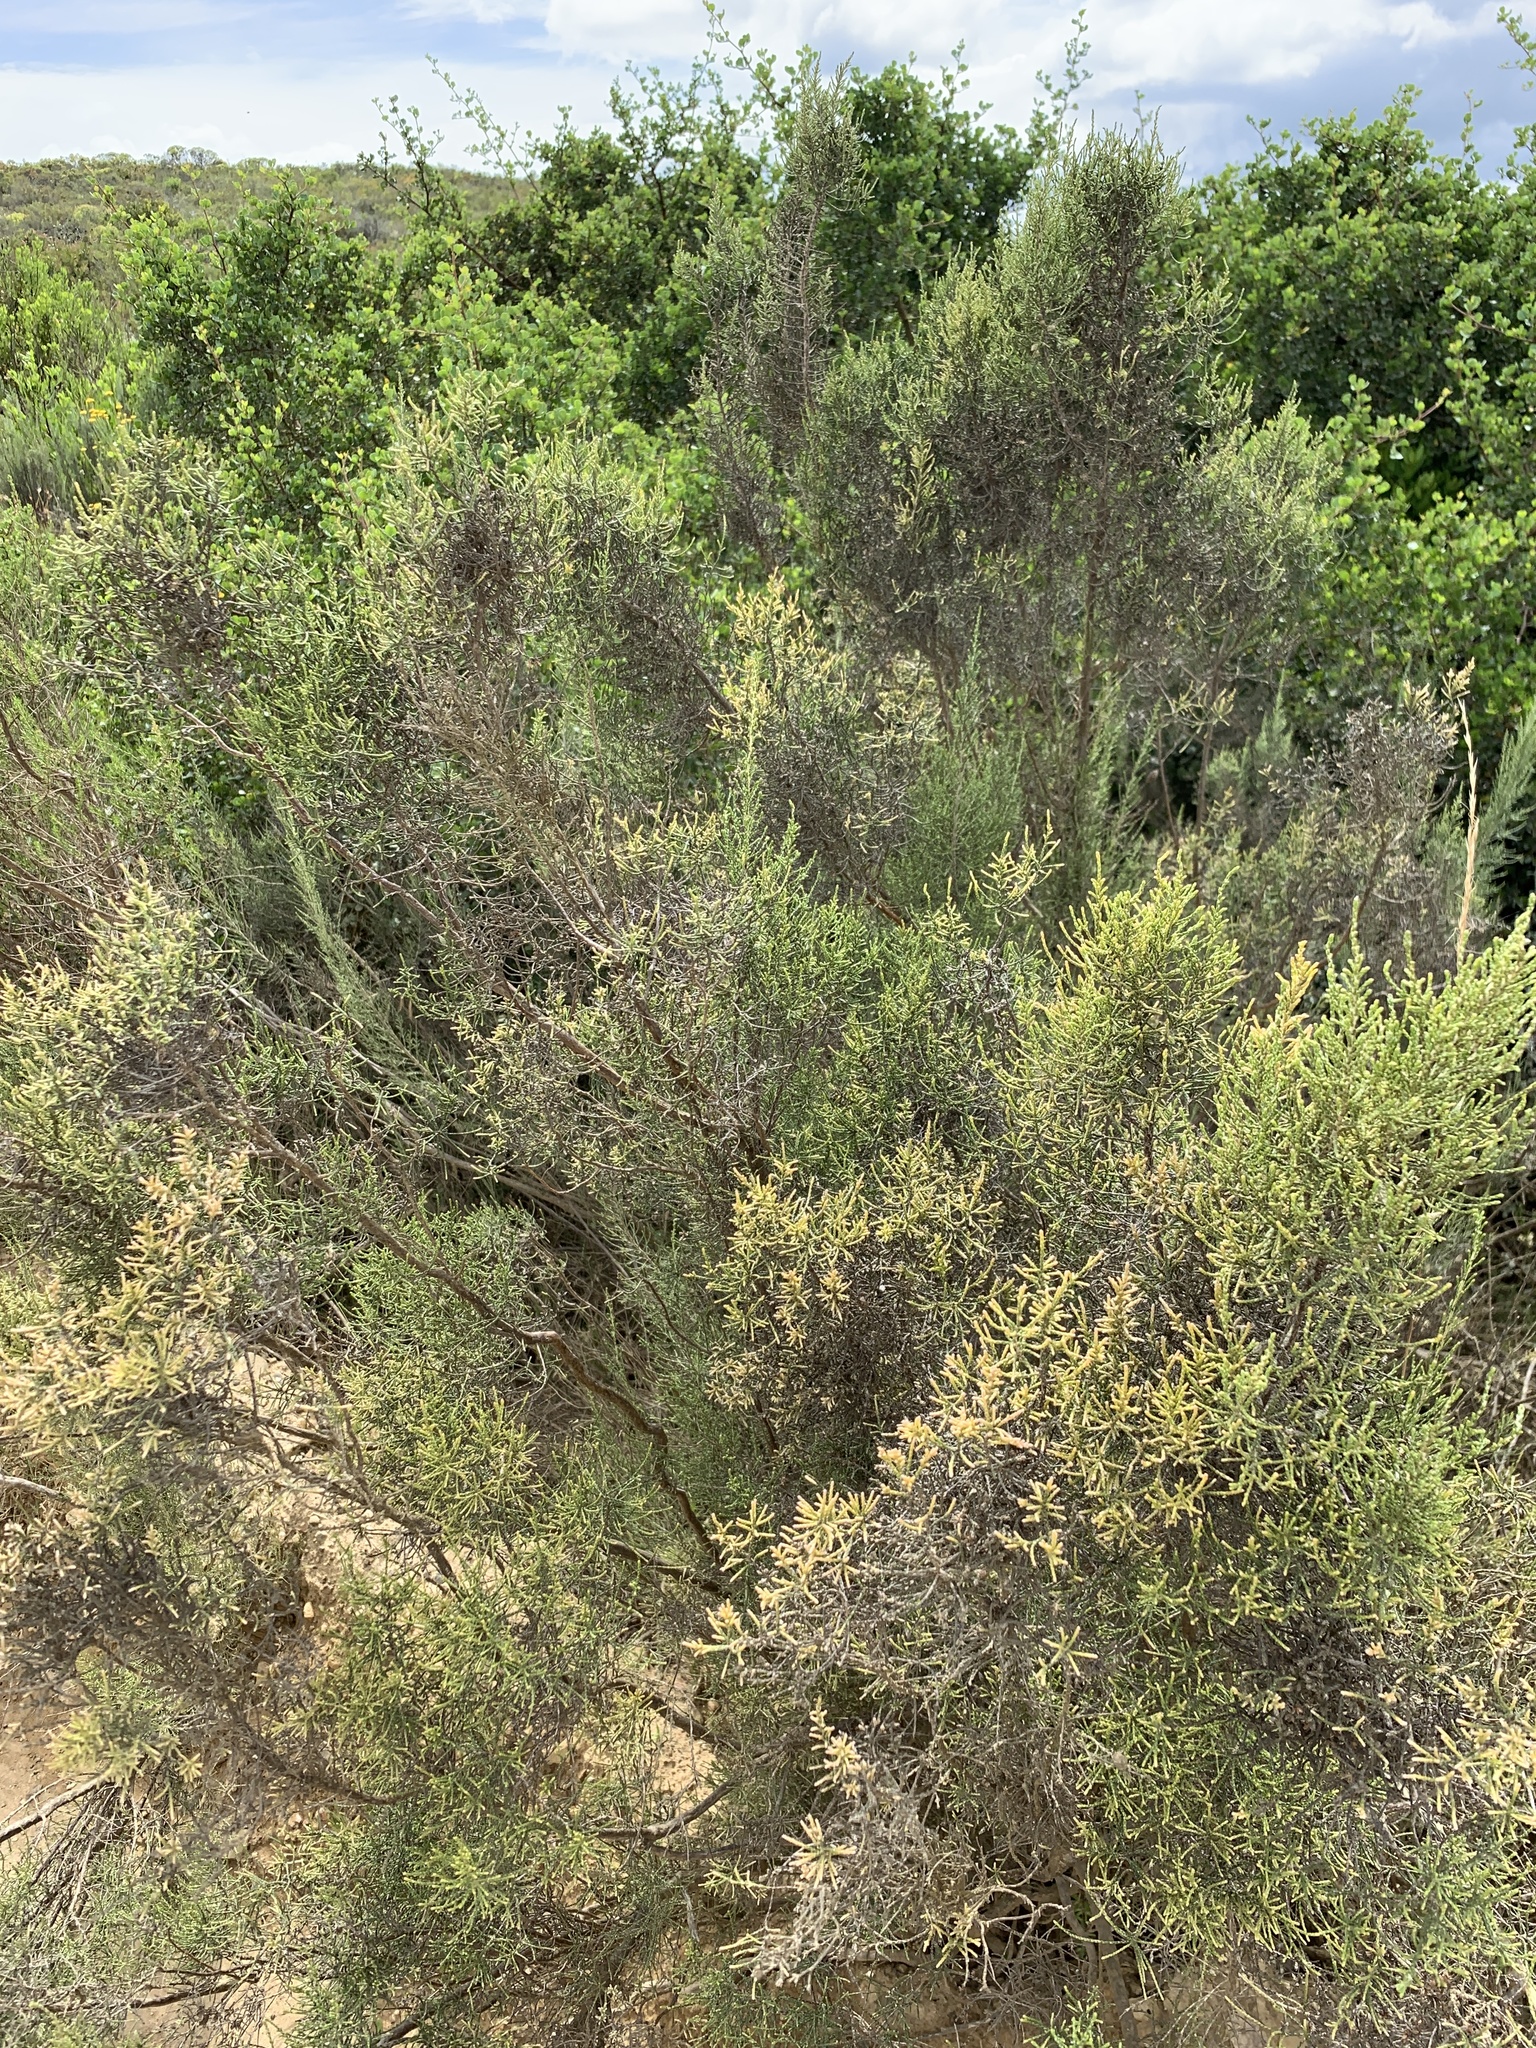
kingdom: Plantae
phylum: Tracheophyta
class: Magnoliopsida
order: Asterales
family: Asteraceae
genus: Dicerothamnus
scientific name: Dicerothamnus rhinocerotis
